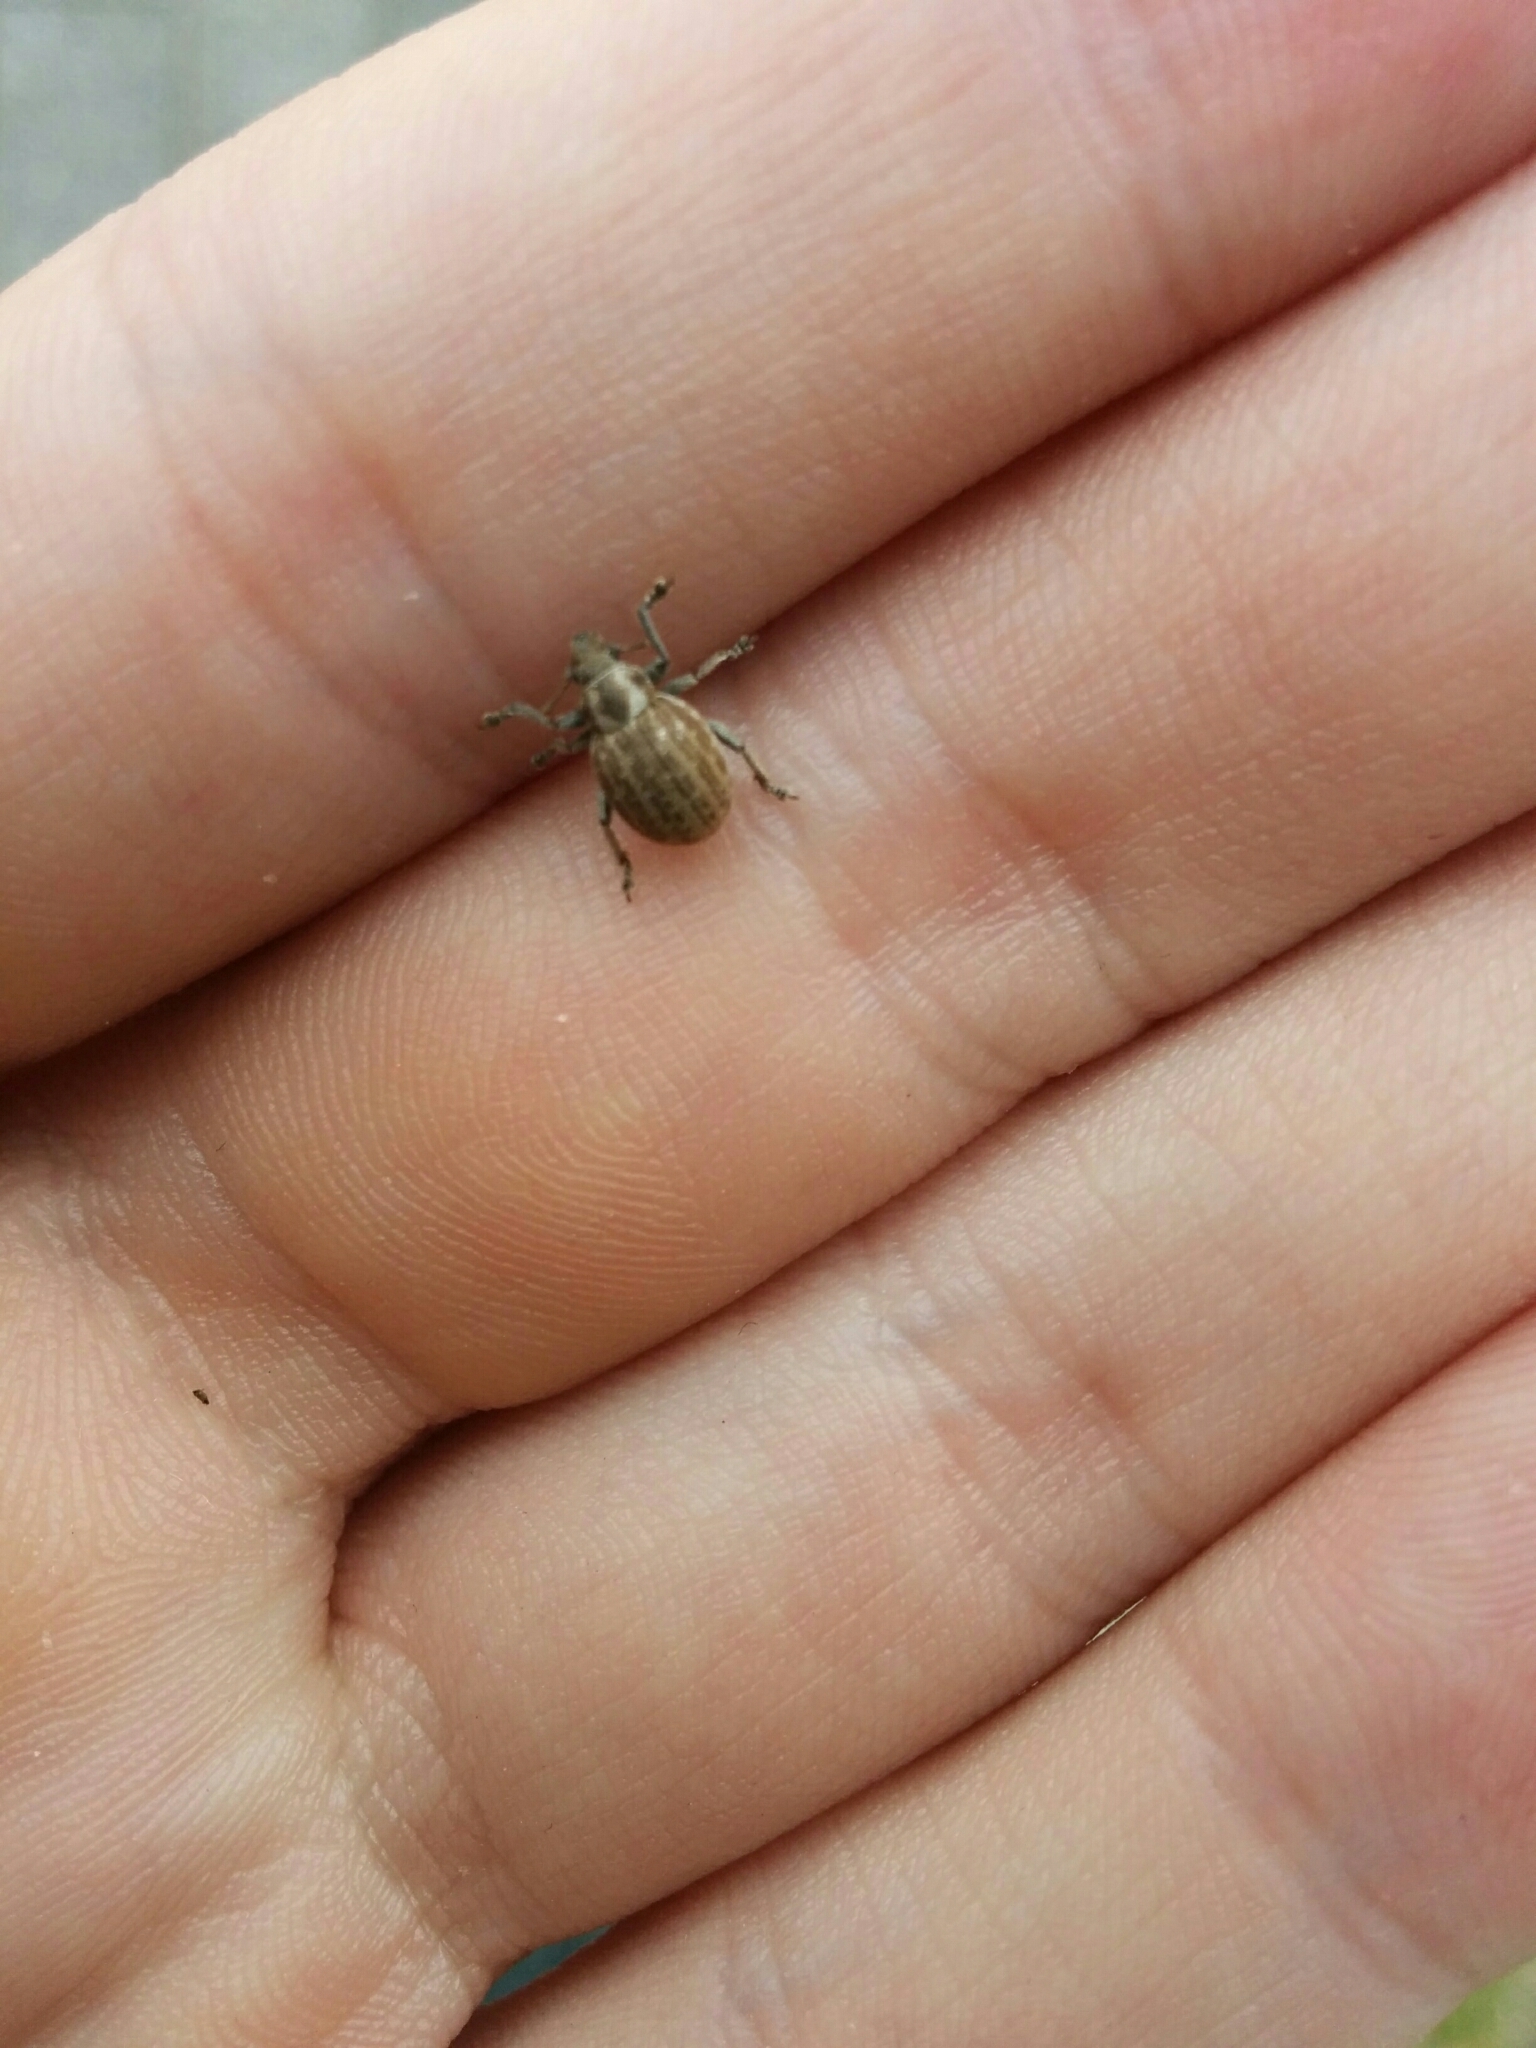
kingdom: Animalia
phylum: Arthropoda
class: Insecta
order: Coleoptera
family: Curculionidae
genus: Philopedon
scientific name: Philopedon plagiatum
